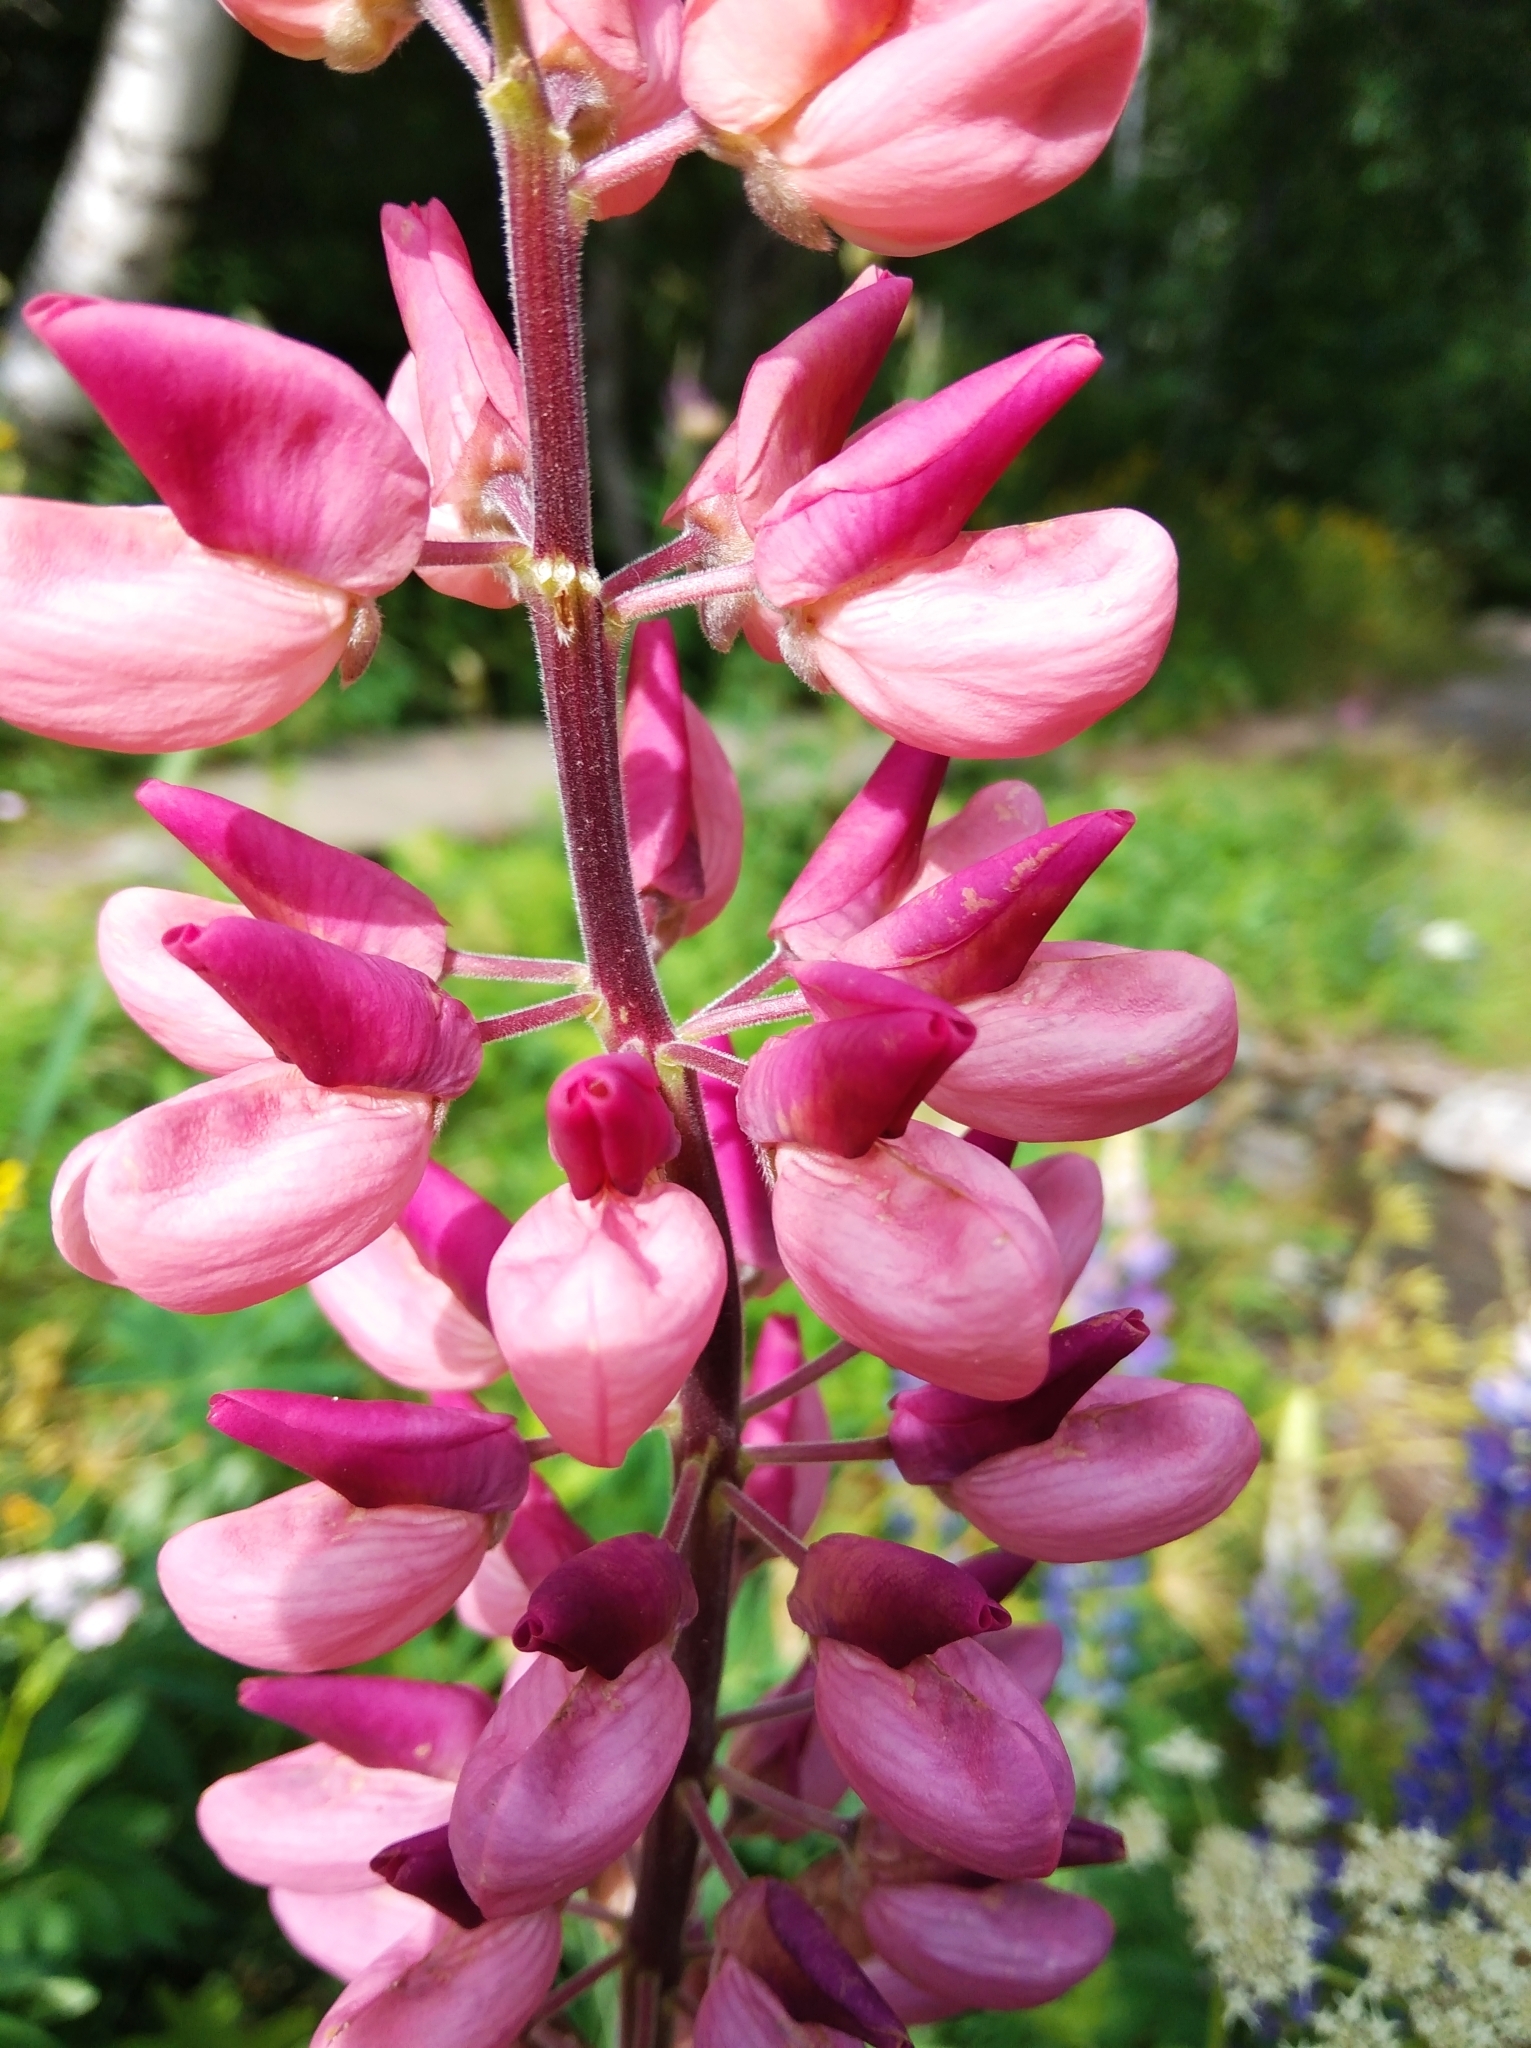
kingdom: Plantae
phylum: Tracheophyta
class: Magnoliopsida
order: Fabales
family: Fabaceae
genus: Lupinus
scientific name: Lupinus polyphyllus
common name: Garden lupin
